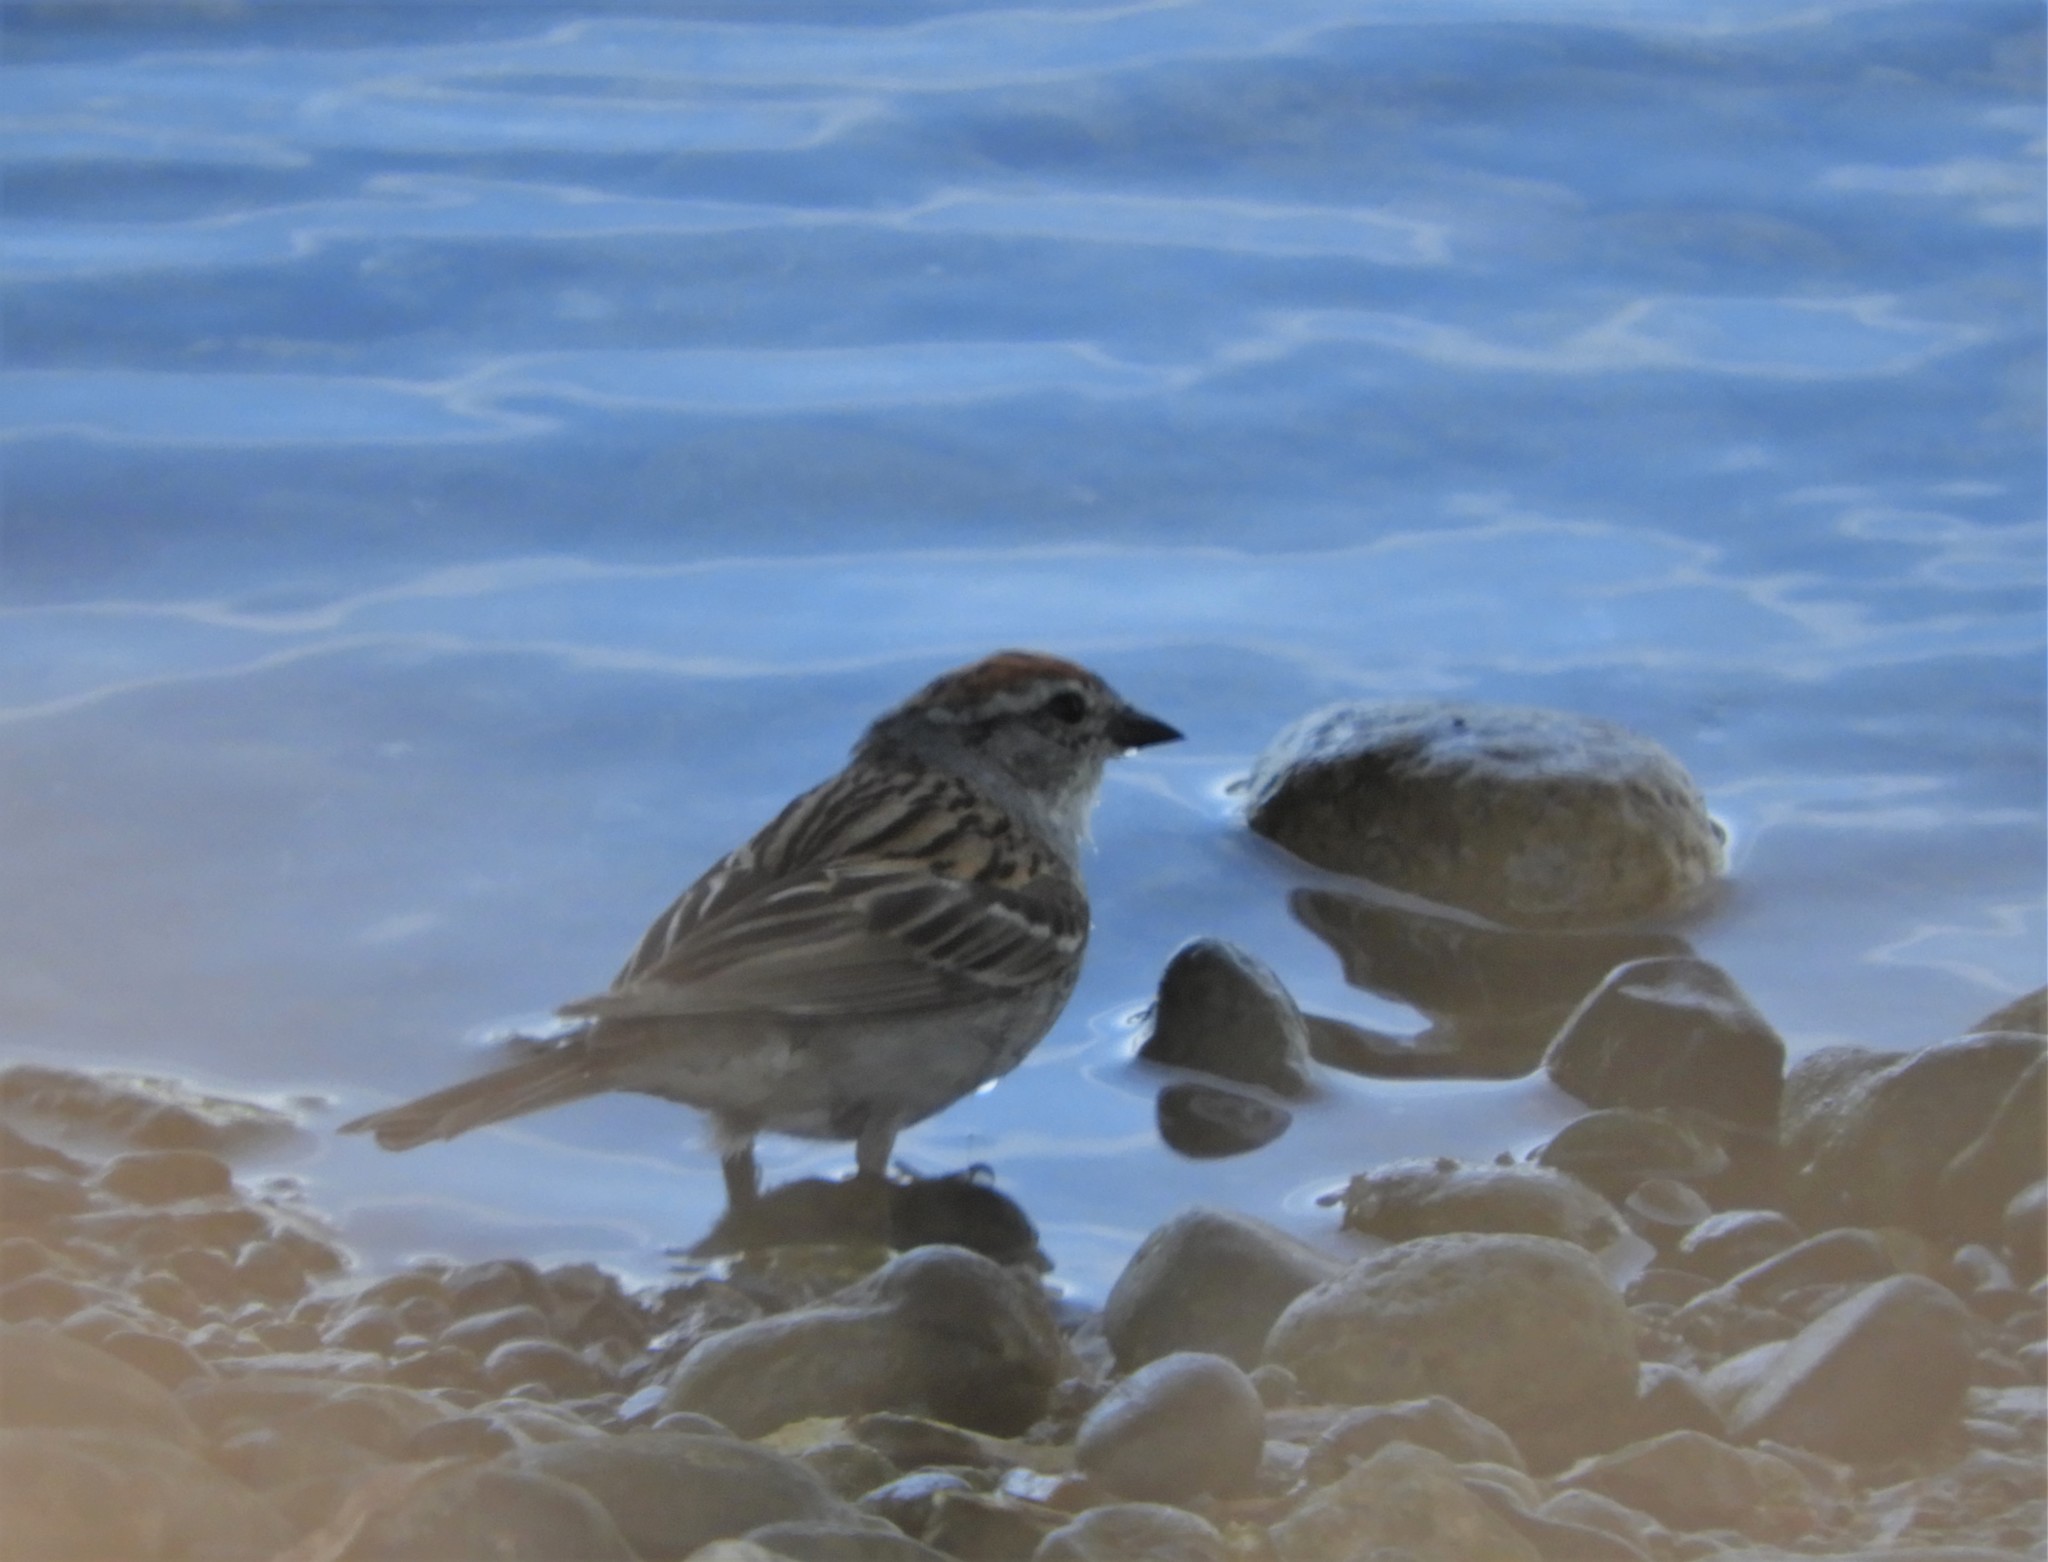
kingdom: Animalia
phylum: Chordata
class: Aves
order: Passeriformes
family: Passerellidae
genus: Spizella
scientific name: Spizella passerina
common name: Chipping sparrow
